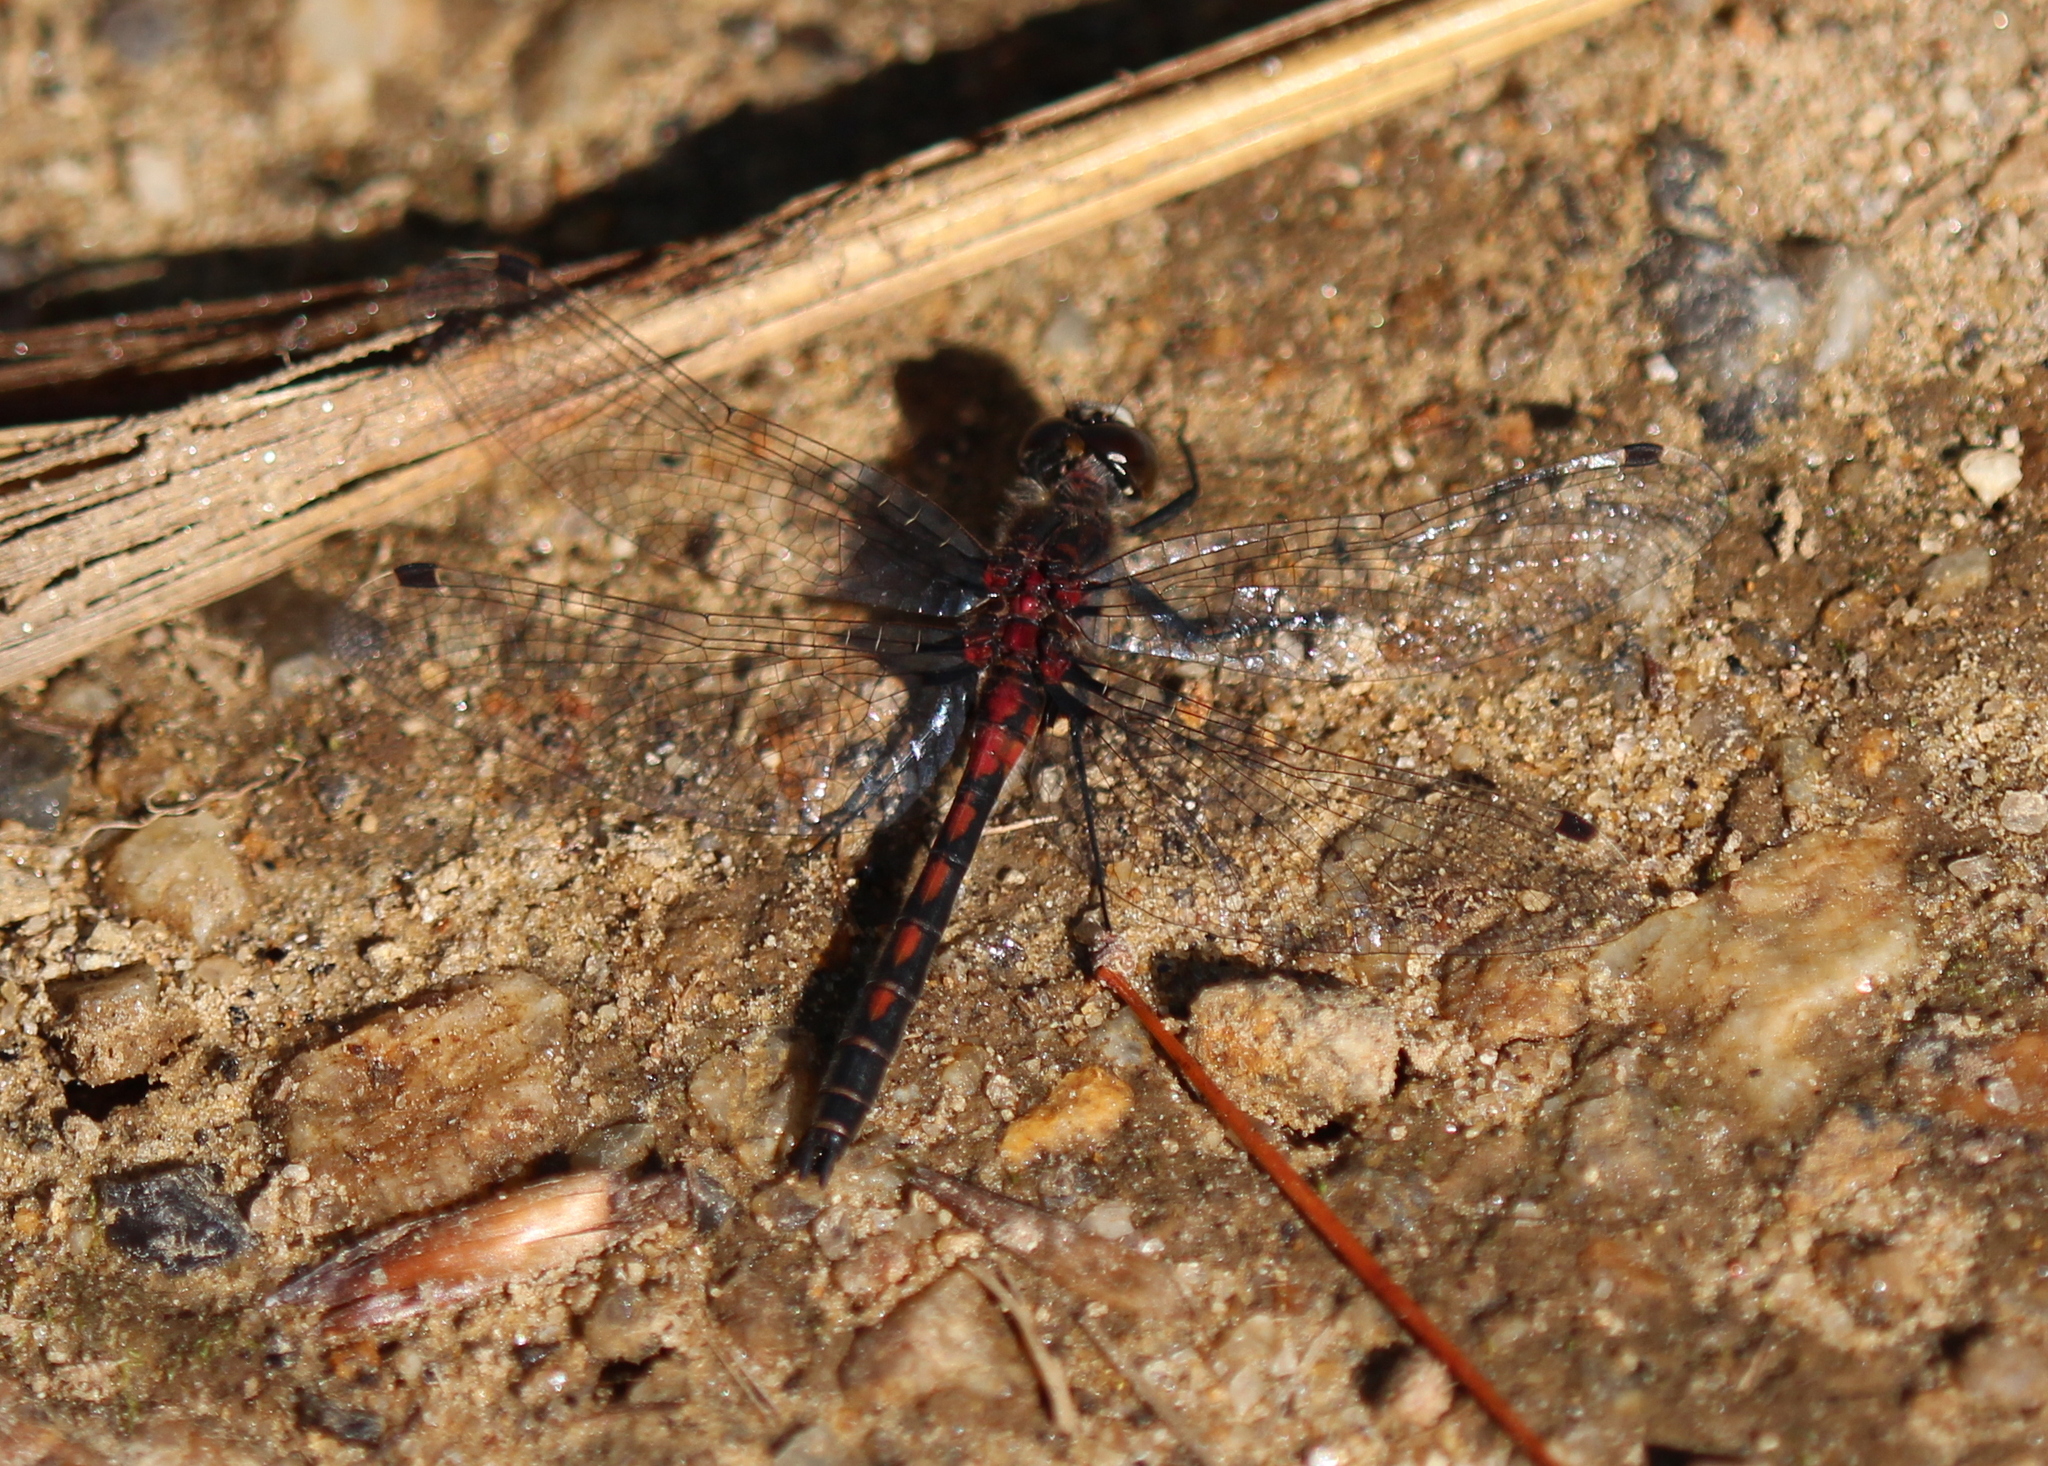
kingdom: Animalia
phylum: Arthropoda
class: Insecta
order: Odonata
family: Libellulidae
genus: Leucorrhinia
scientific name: Leucorrhinia hudsonica
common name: Hudsonian whiteface
